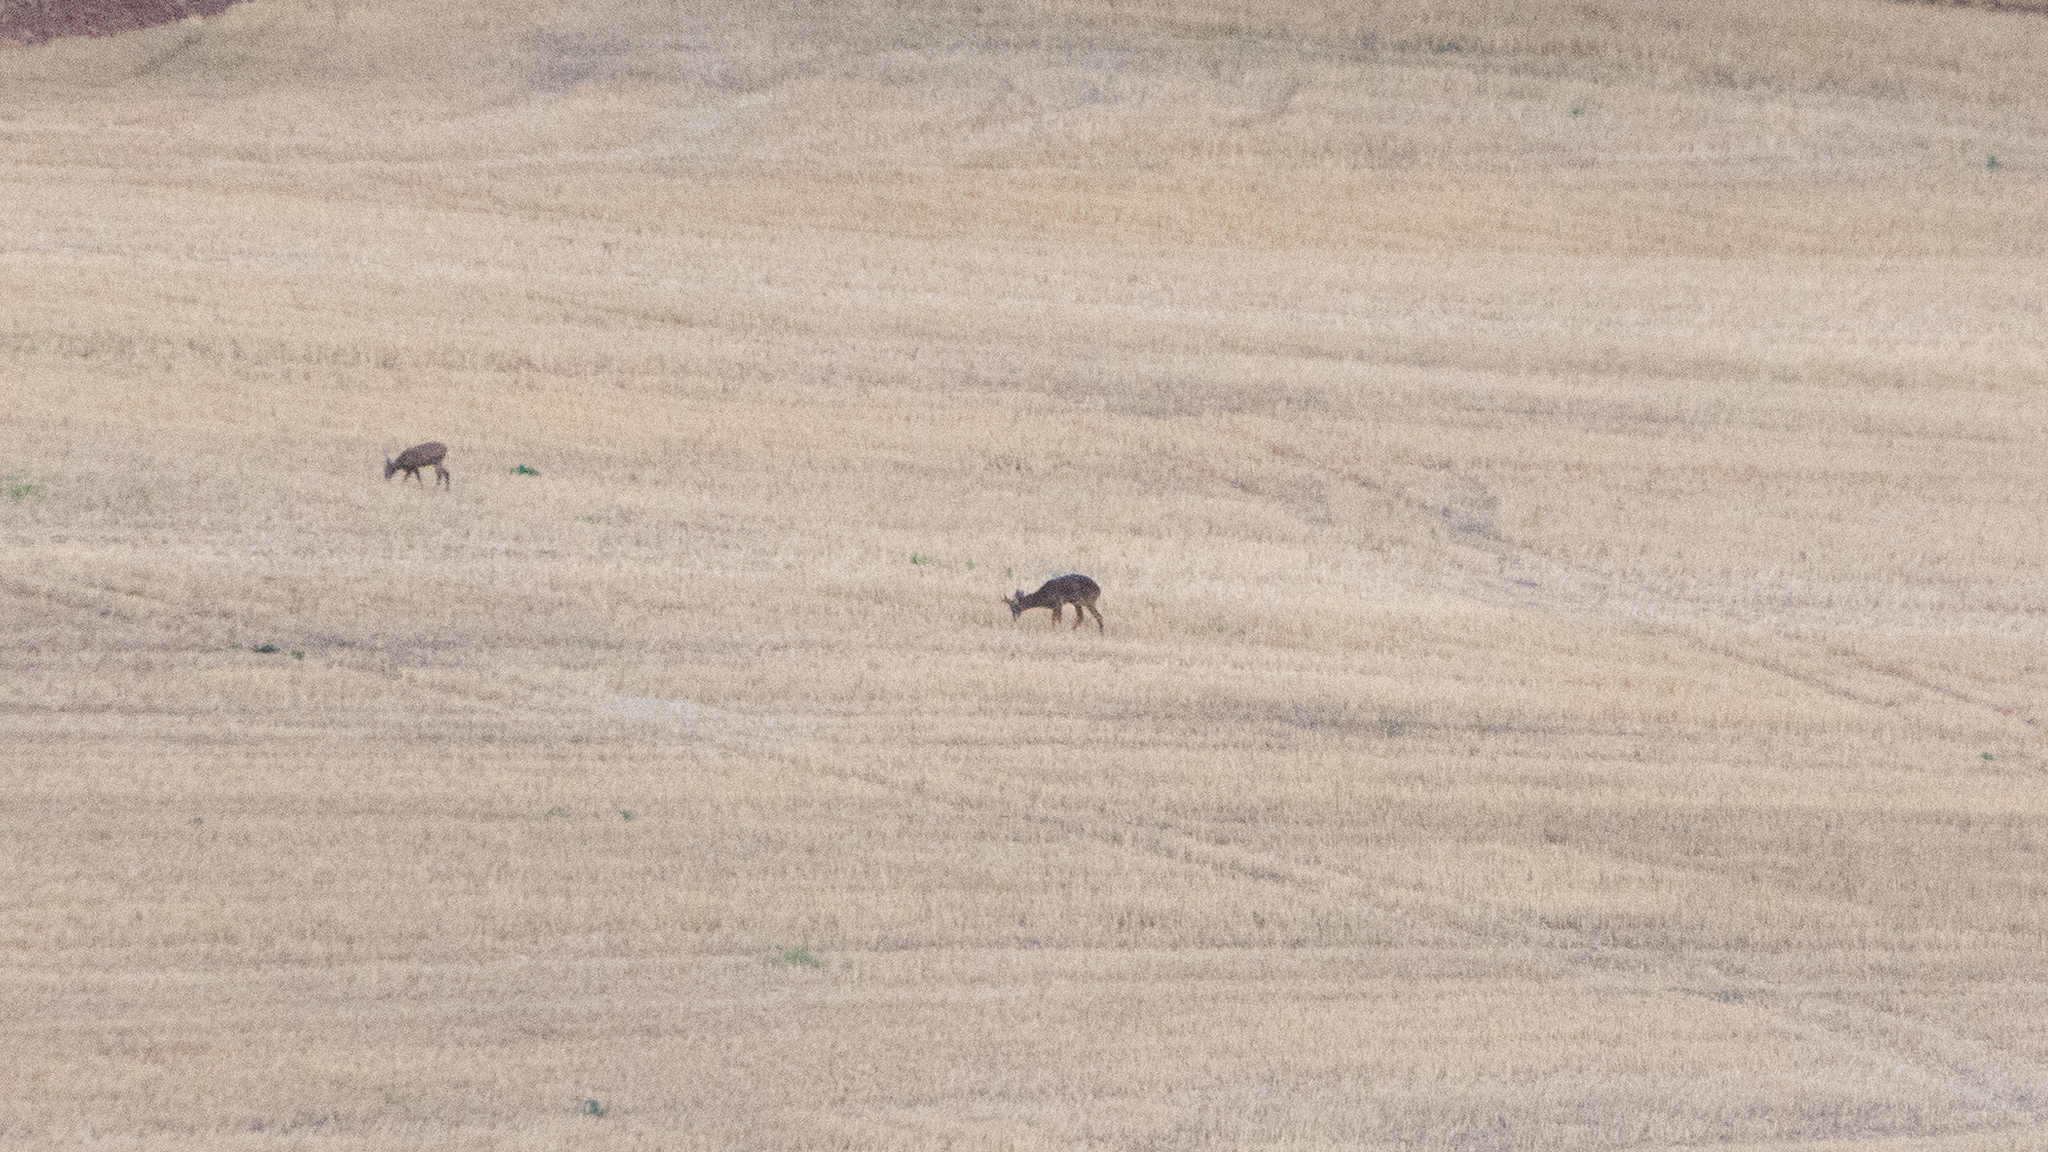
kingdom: Animalia
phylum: Chordata
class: Mammalia
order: Artiodactyla
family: Cervidae
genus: Capreolus
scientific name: Capreolus capreolus
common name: Western roe deer
